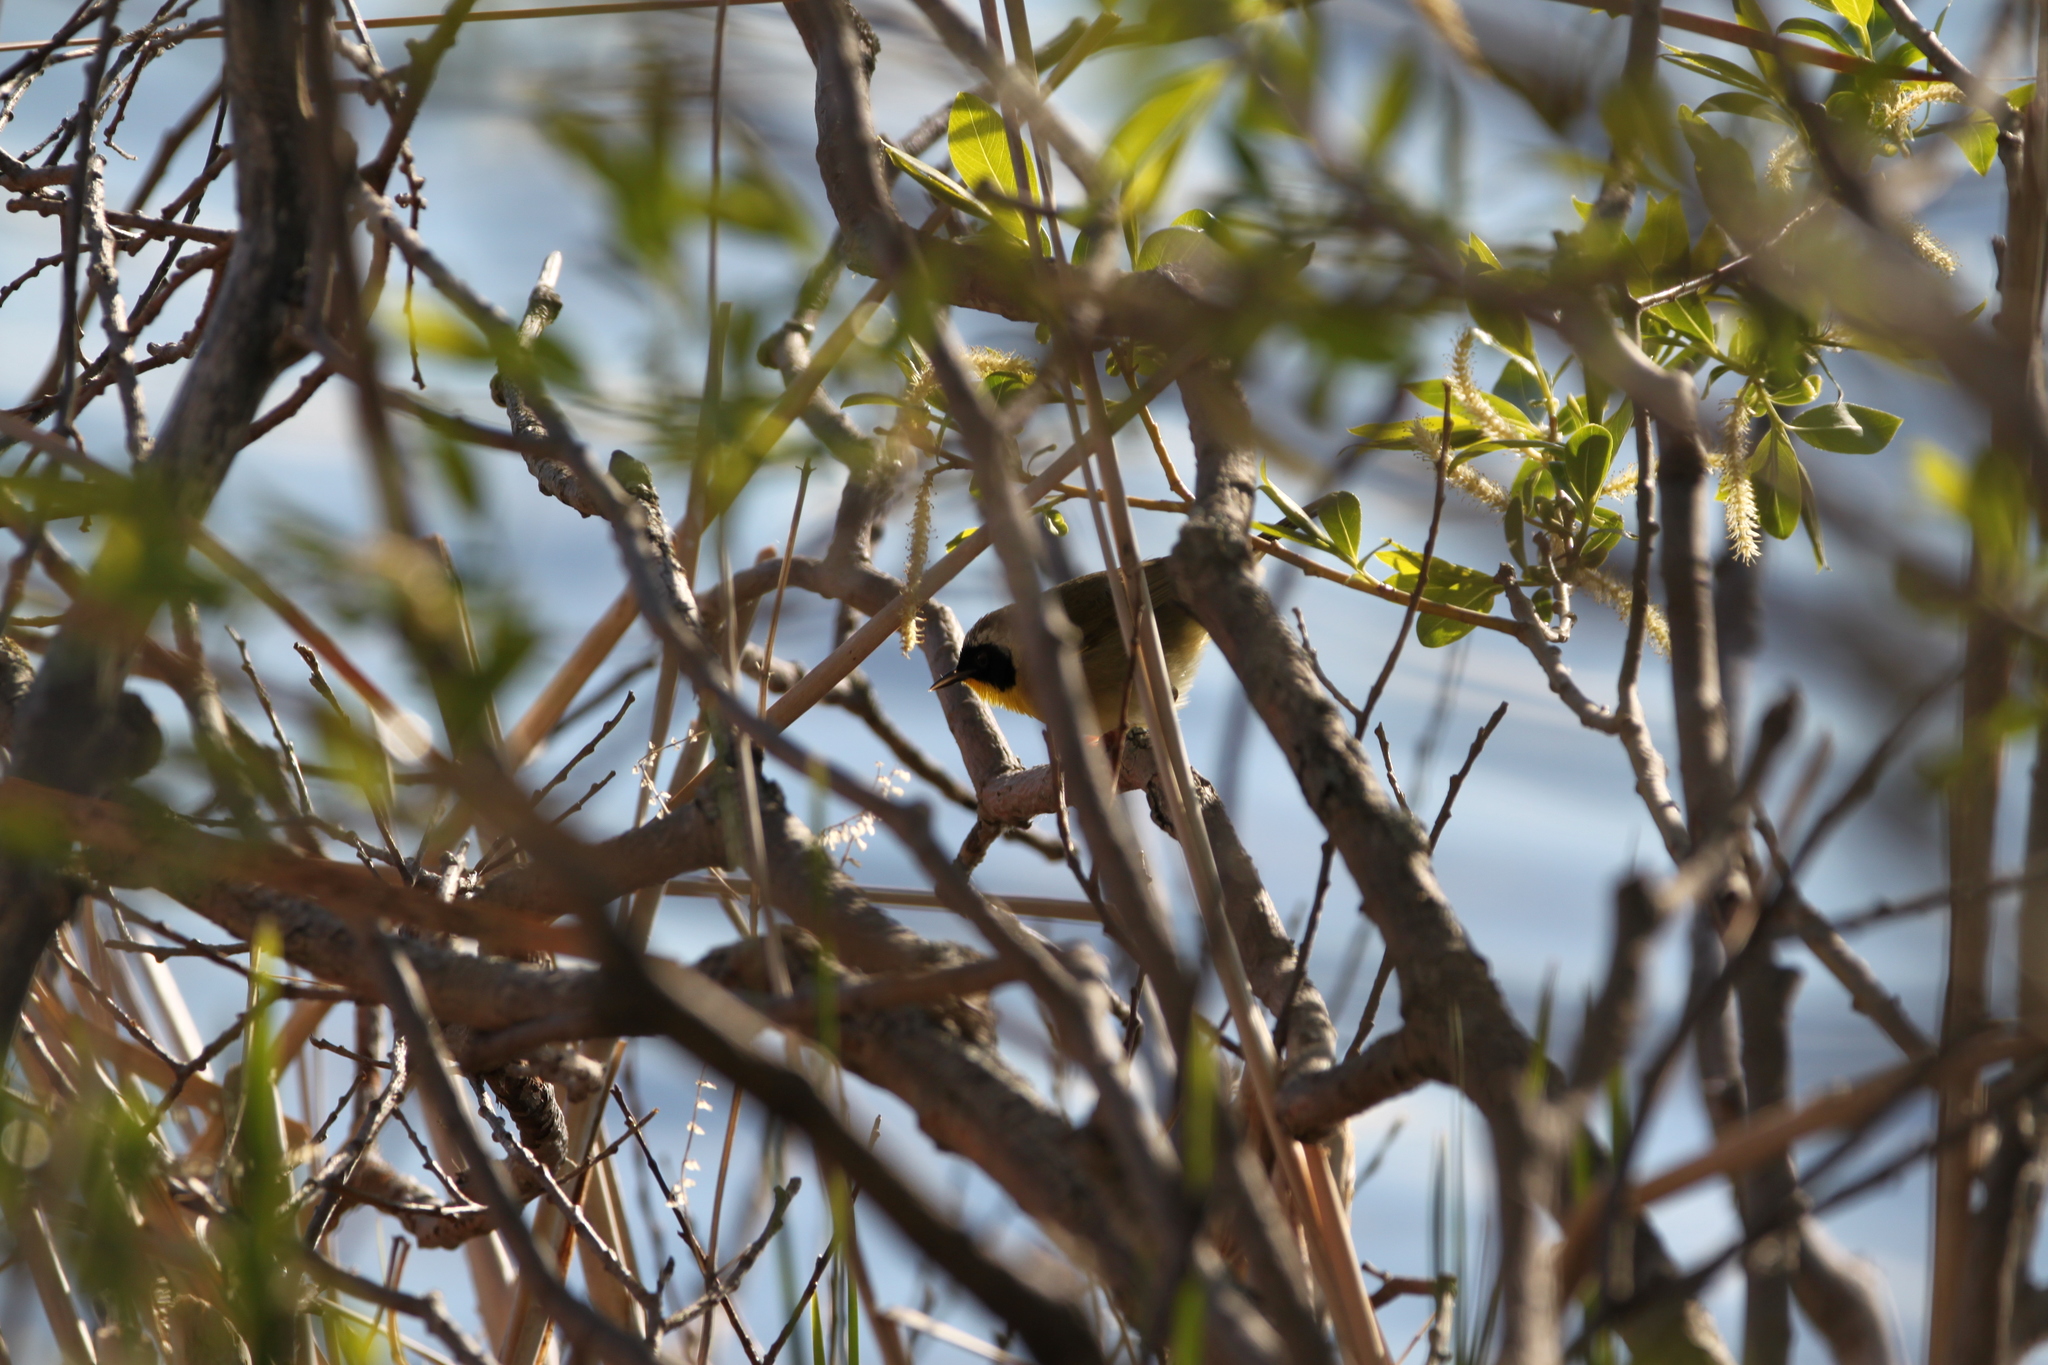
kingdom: Animalia
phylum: Chordata
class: Aves
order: Passeriformes
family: Parulidae
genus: Geothlypis
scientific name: Geothlypis trichas
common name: Common yellowthroat
